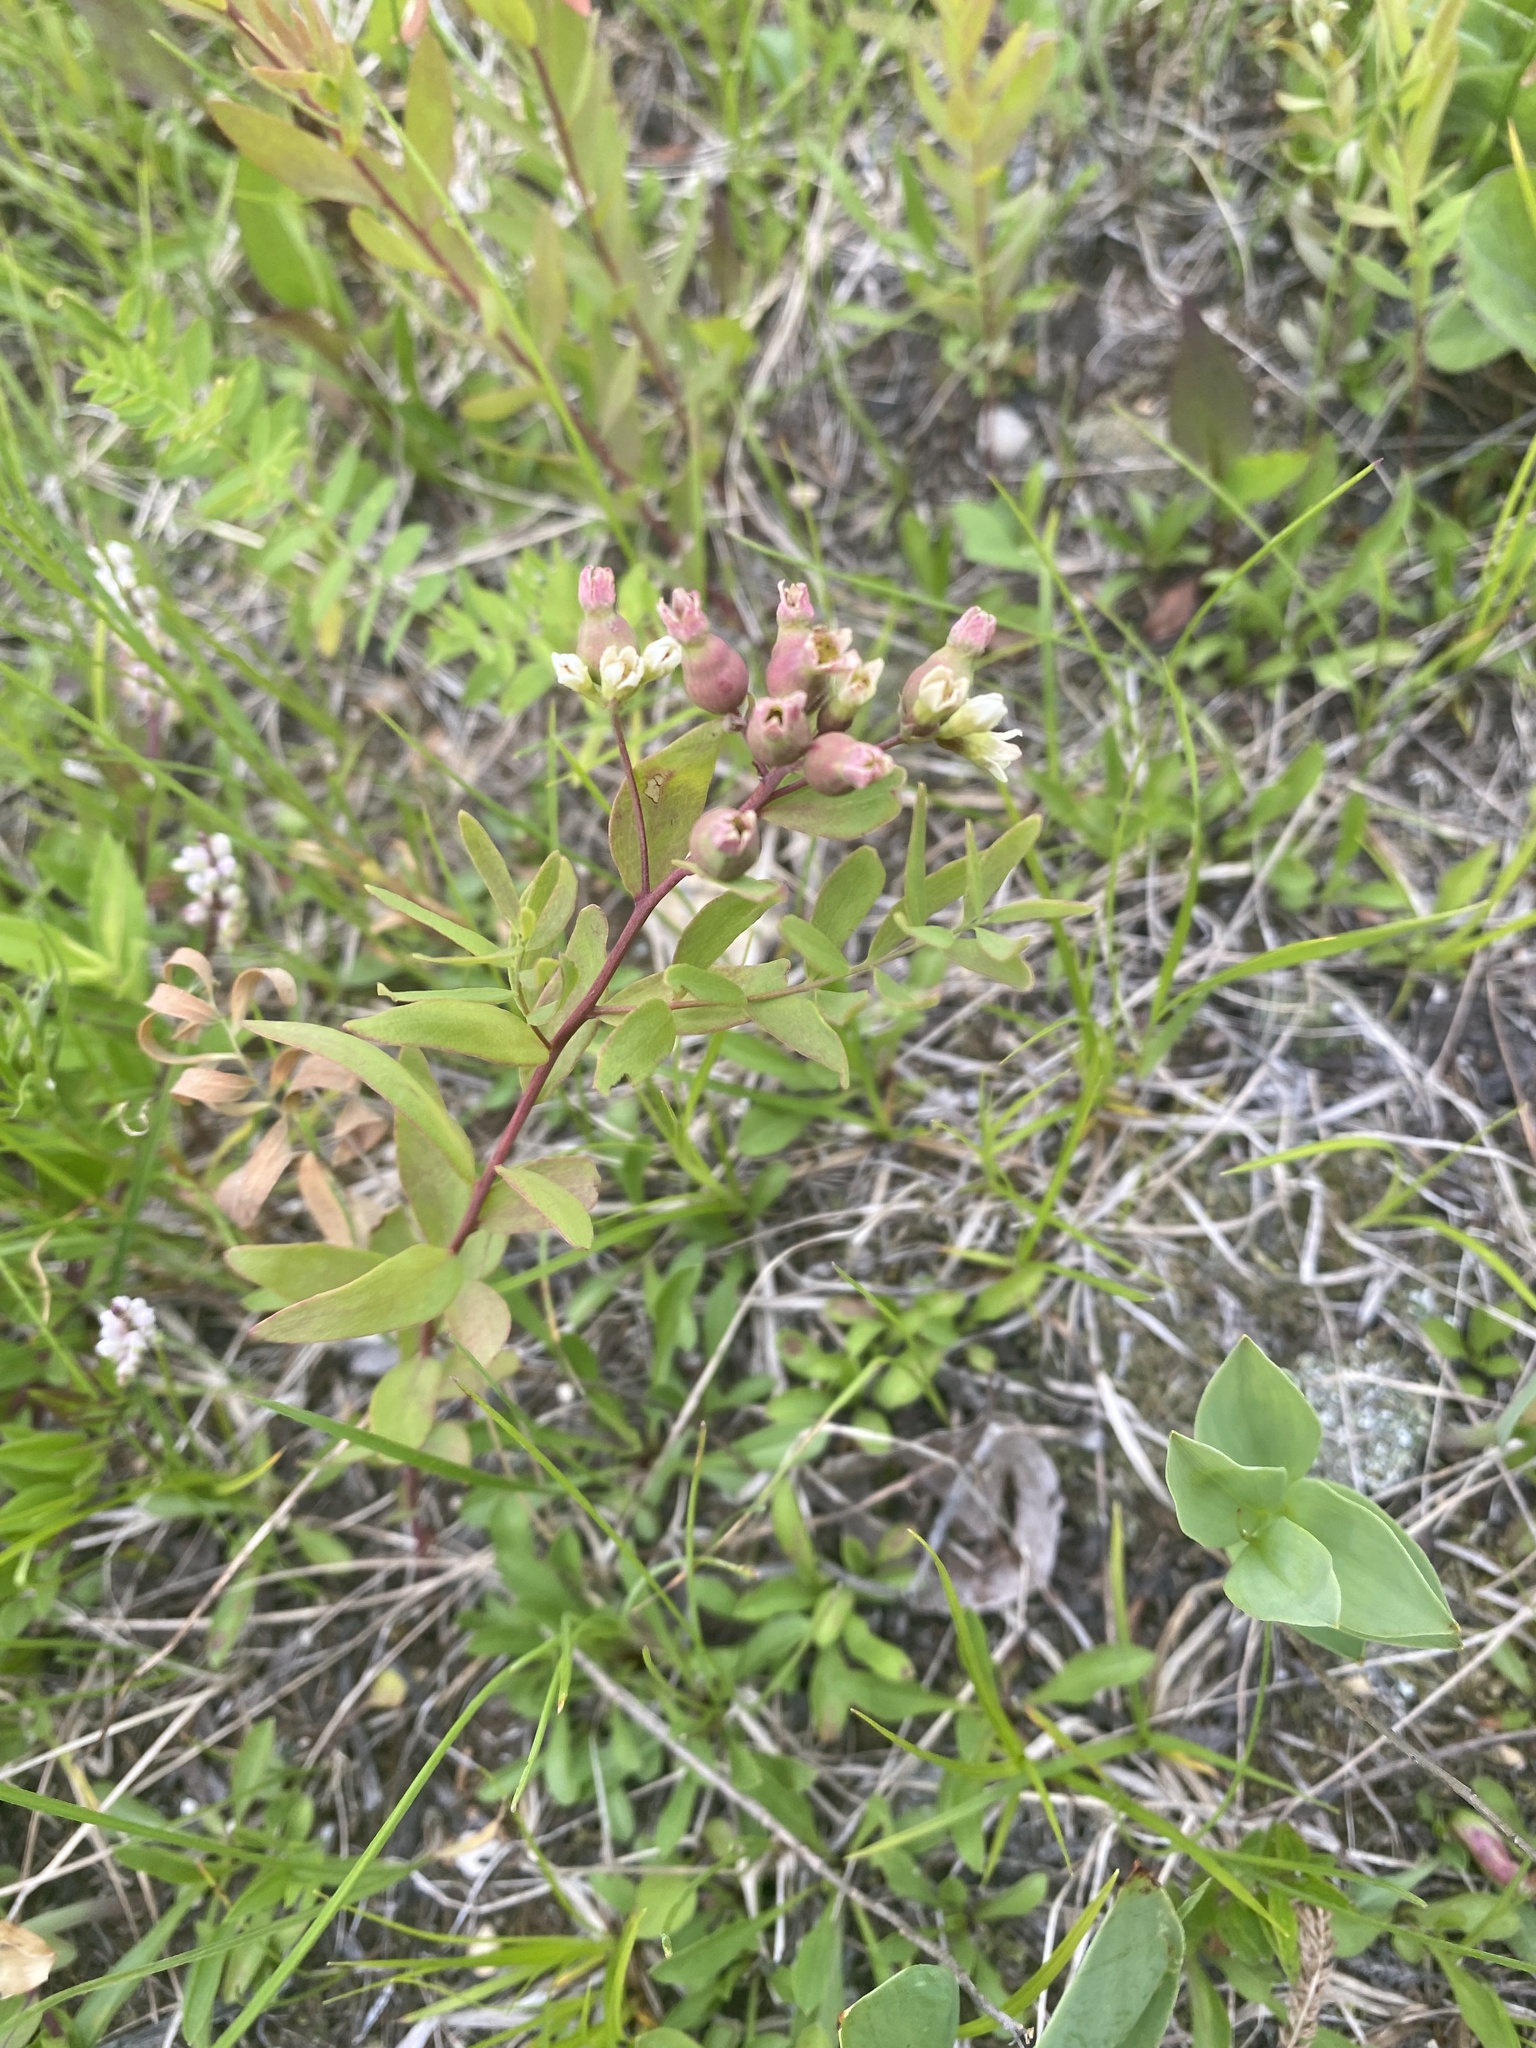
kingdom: Plantae
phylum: Tracheophyta
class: Magnoliopsida
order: Santalales
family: Comandraceae
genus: Comandra
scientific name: Comandra umbellata
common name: Bastard toadflax
